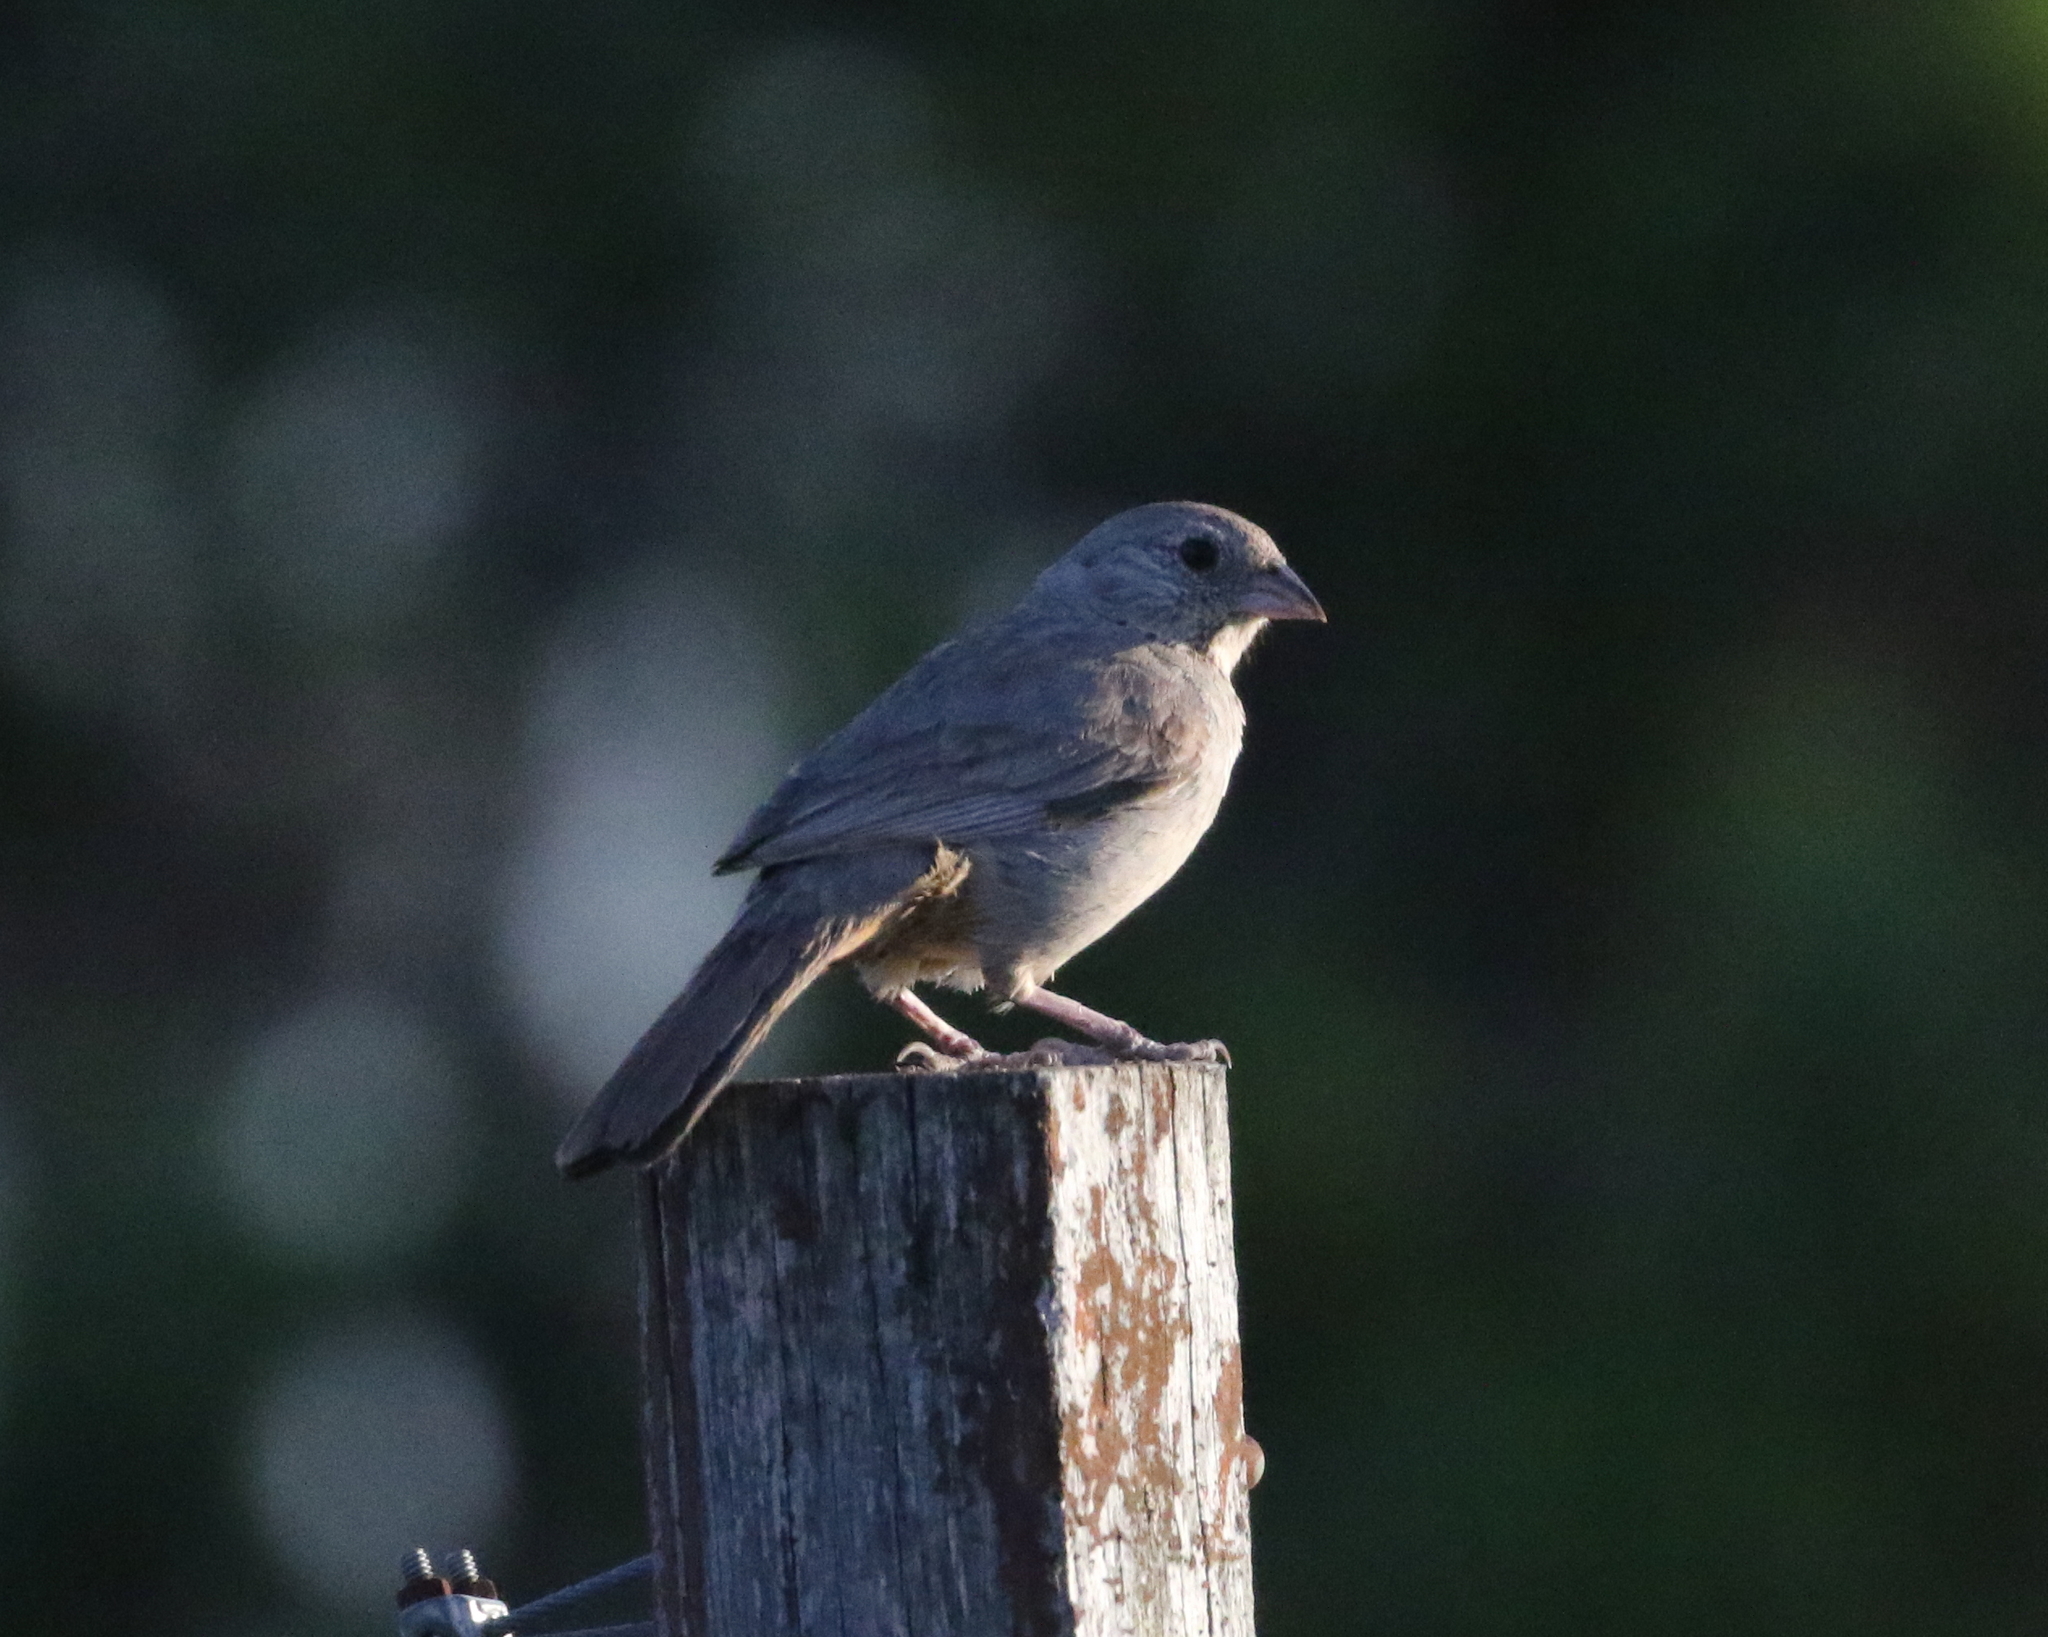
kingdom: Animalia
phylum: Chordata
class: Aves
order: Passeriformes
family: Passerellidae
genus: Melozone
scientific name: Melozone fusca
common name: Canyon towhee
